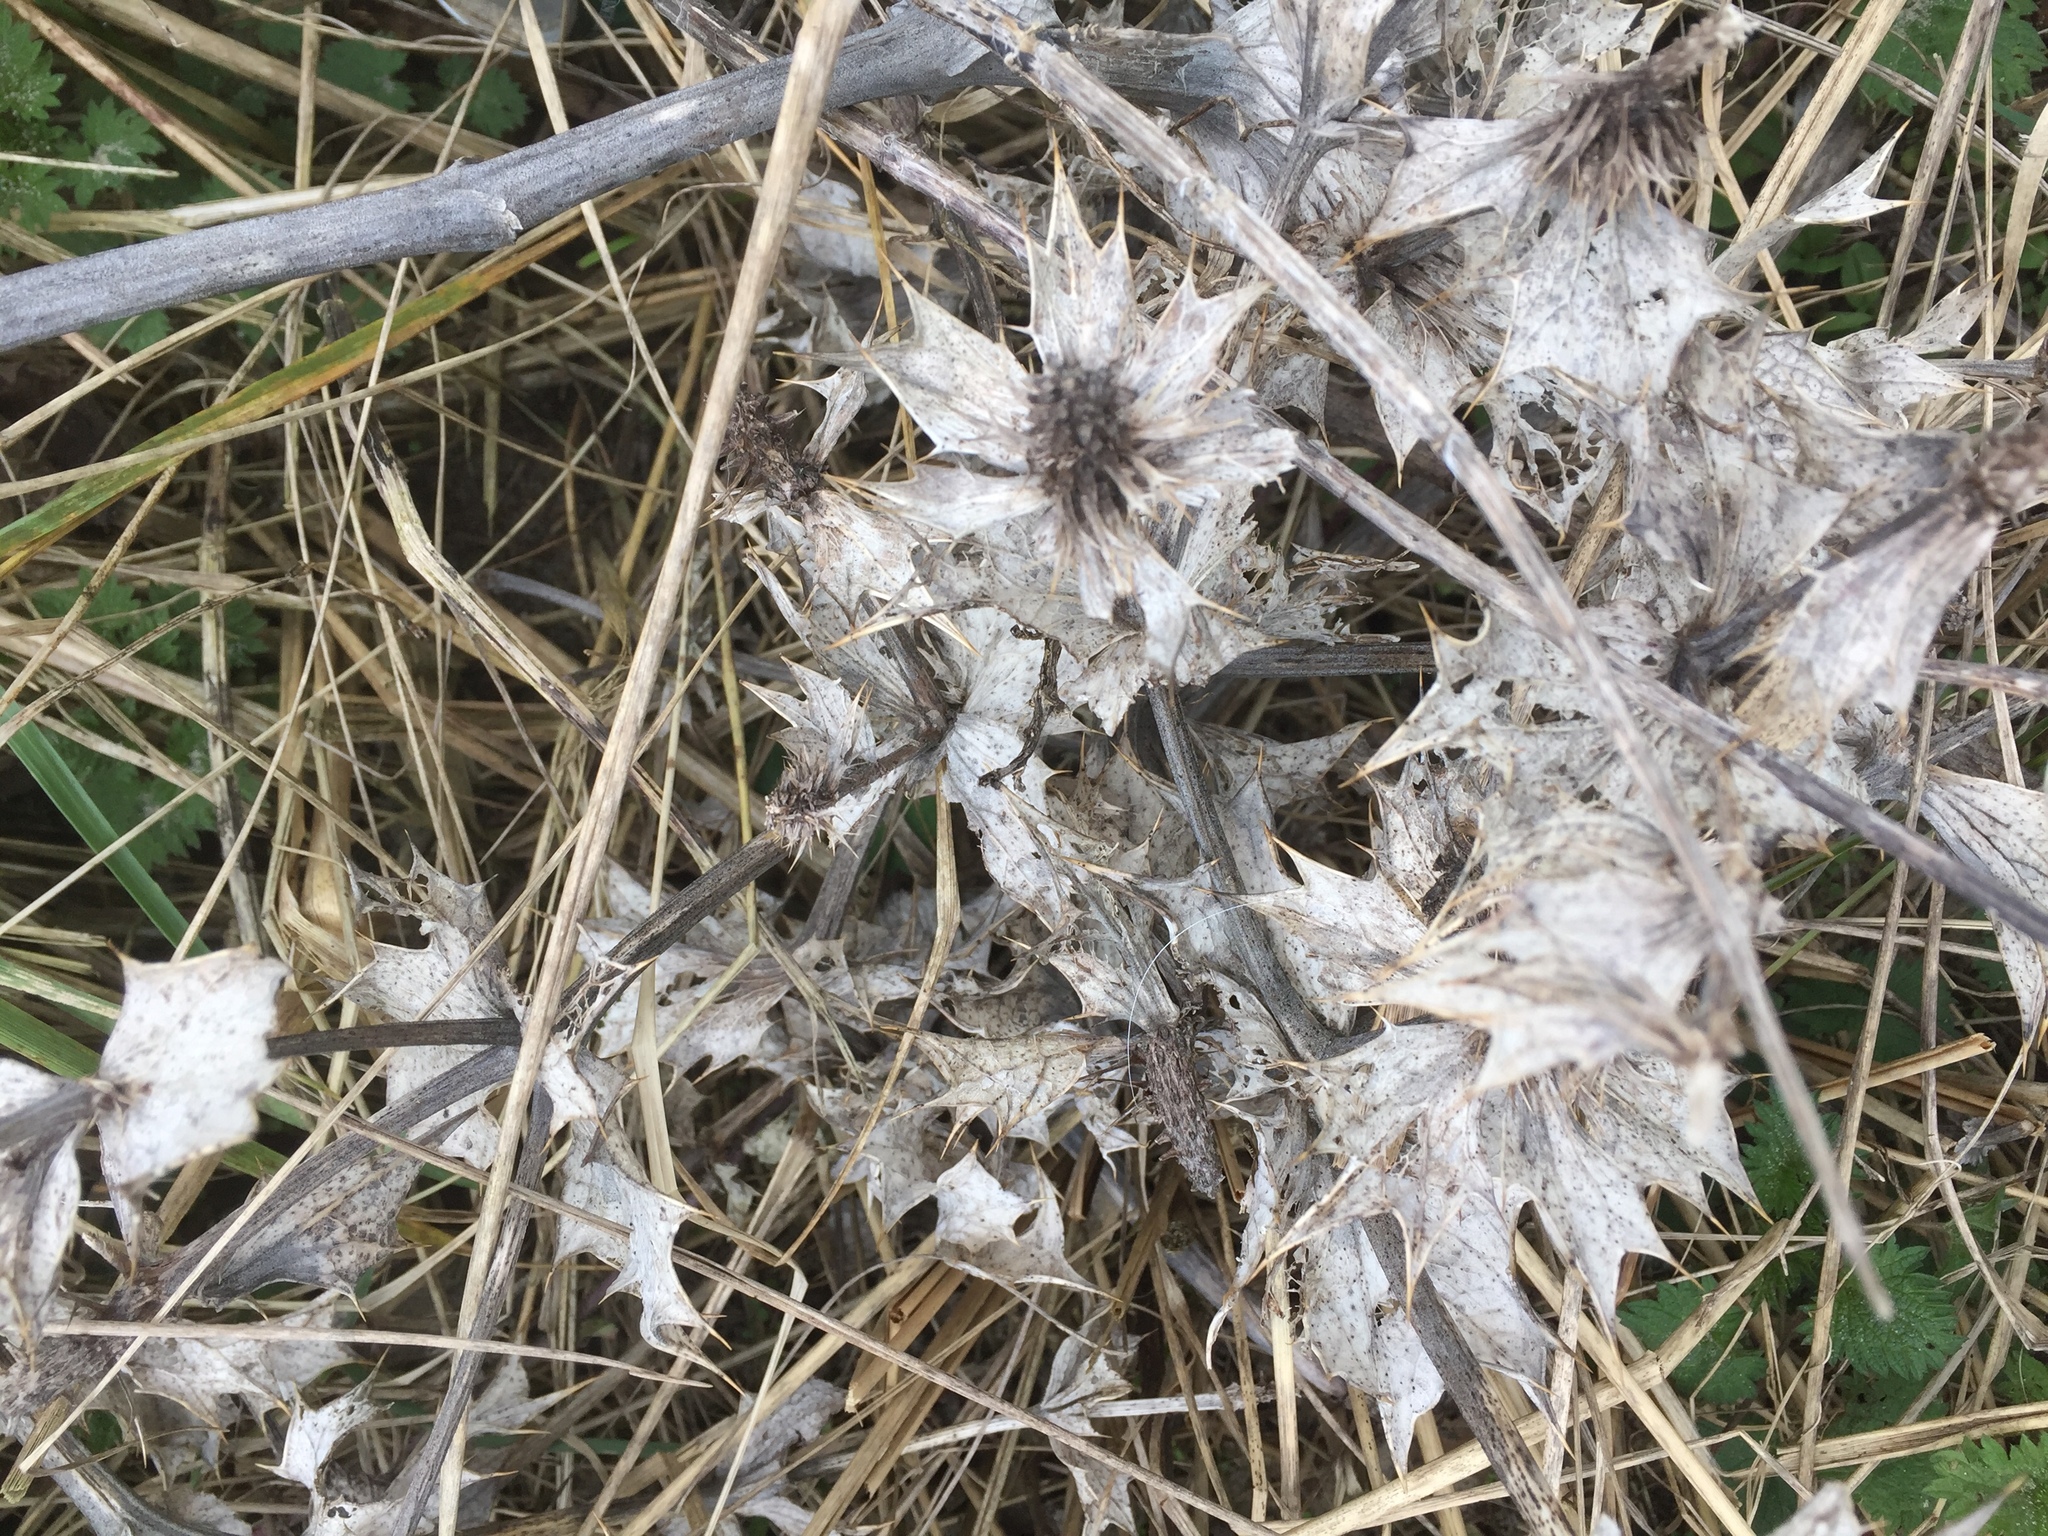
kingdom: Plantae
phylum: Tracheophyta
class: Magnoliopsida
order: Apiales
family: Apiaceae
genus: Eryngium
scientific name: Eryngium maritimum
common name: Sea-holly
